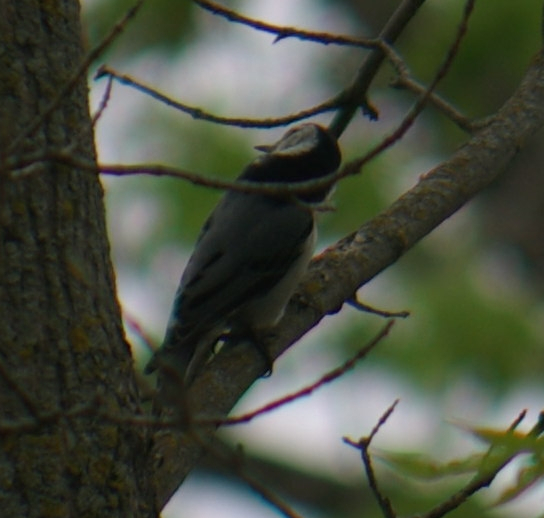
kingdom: Animalia
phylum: Chordata
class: Aves
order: Passeriformes
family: Sittidae
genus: Sitta
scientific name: Sitta carolinensis
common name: White-breasted nuthatch
